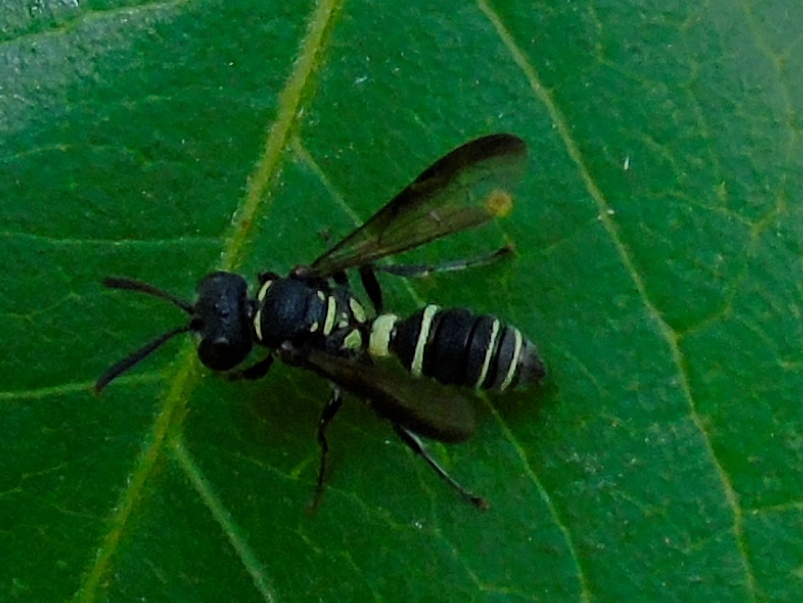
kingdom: Animalia
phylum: Arthropoda
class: Insecta
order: Hymenoptera
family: Crabronidae
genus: Cerceris
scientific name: Cerceris
